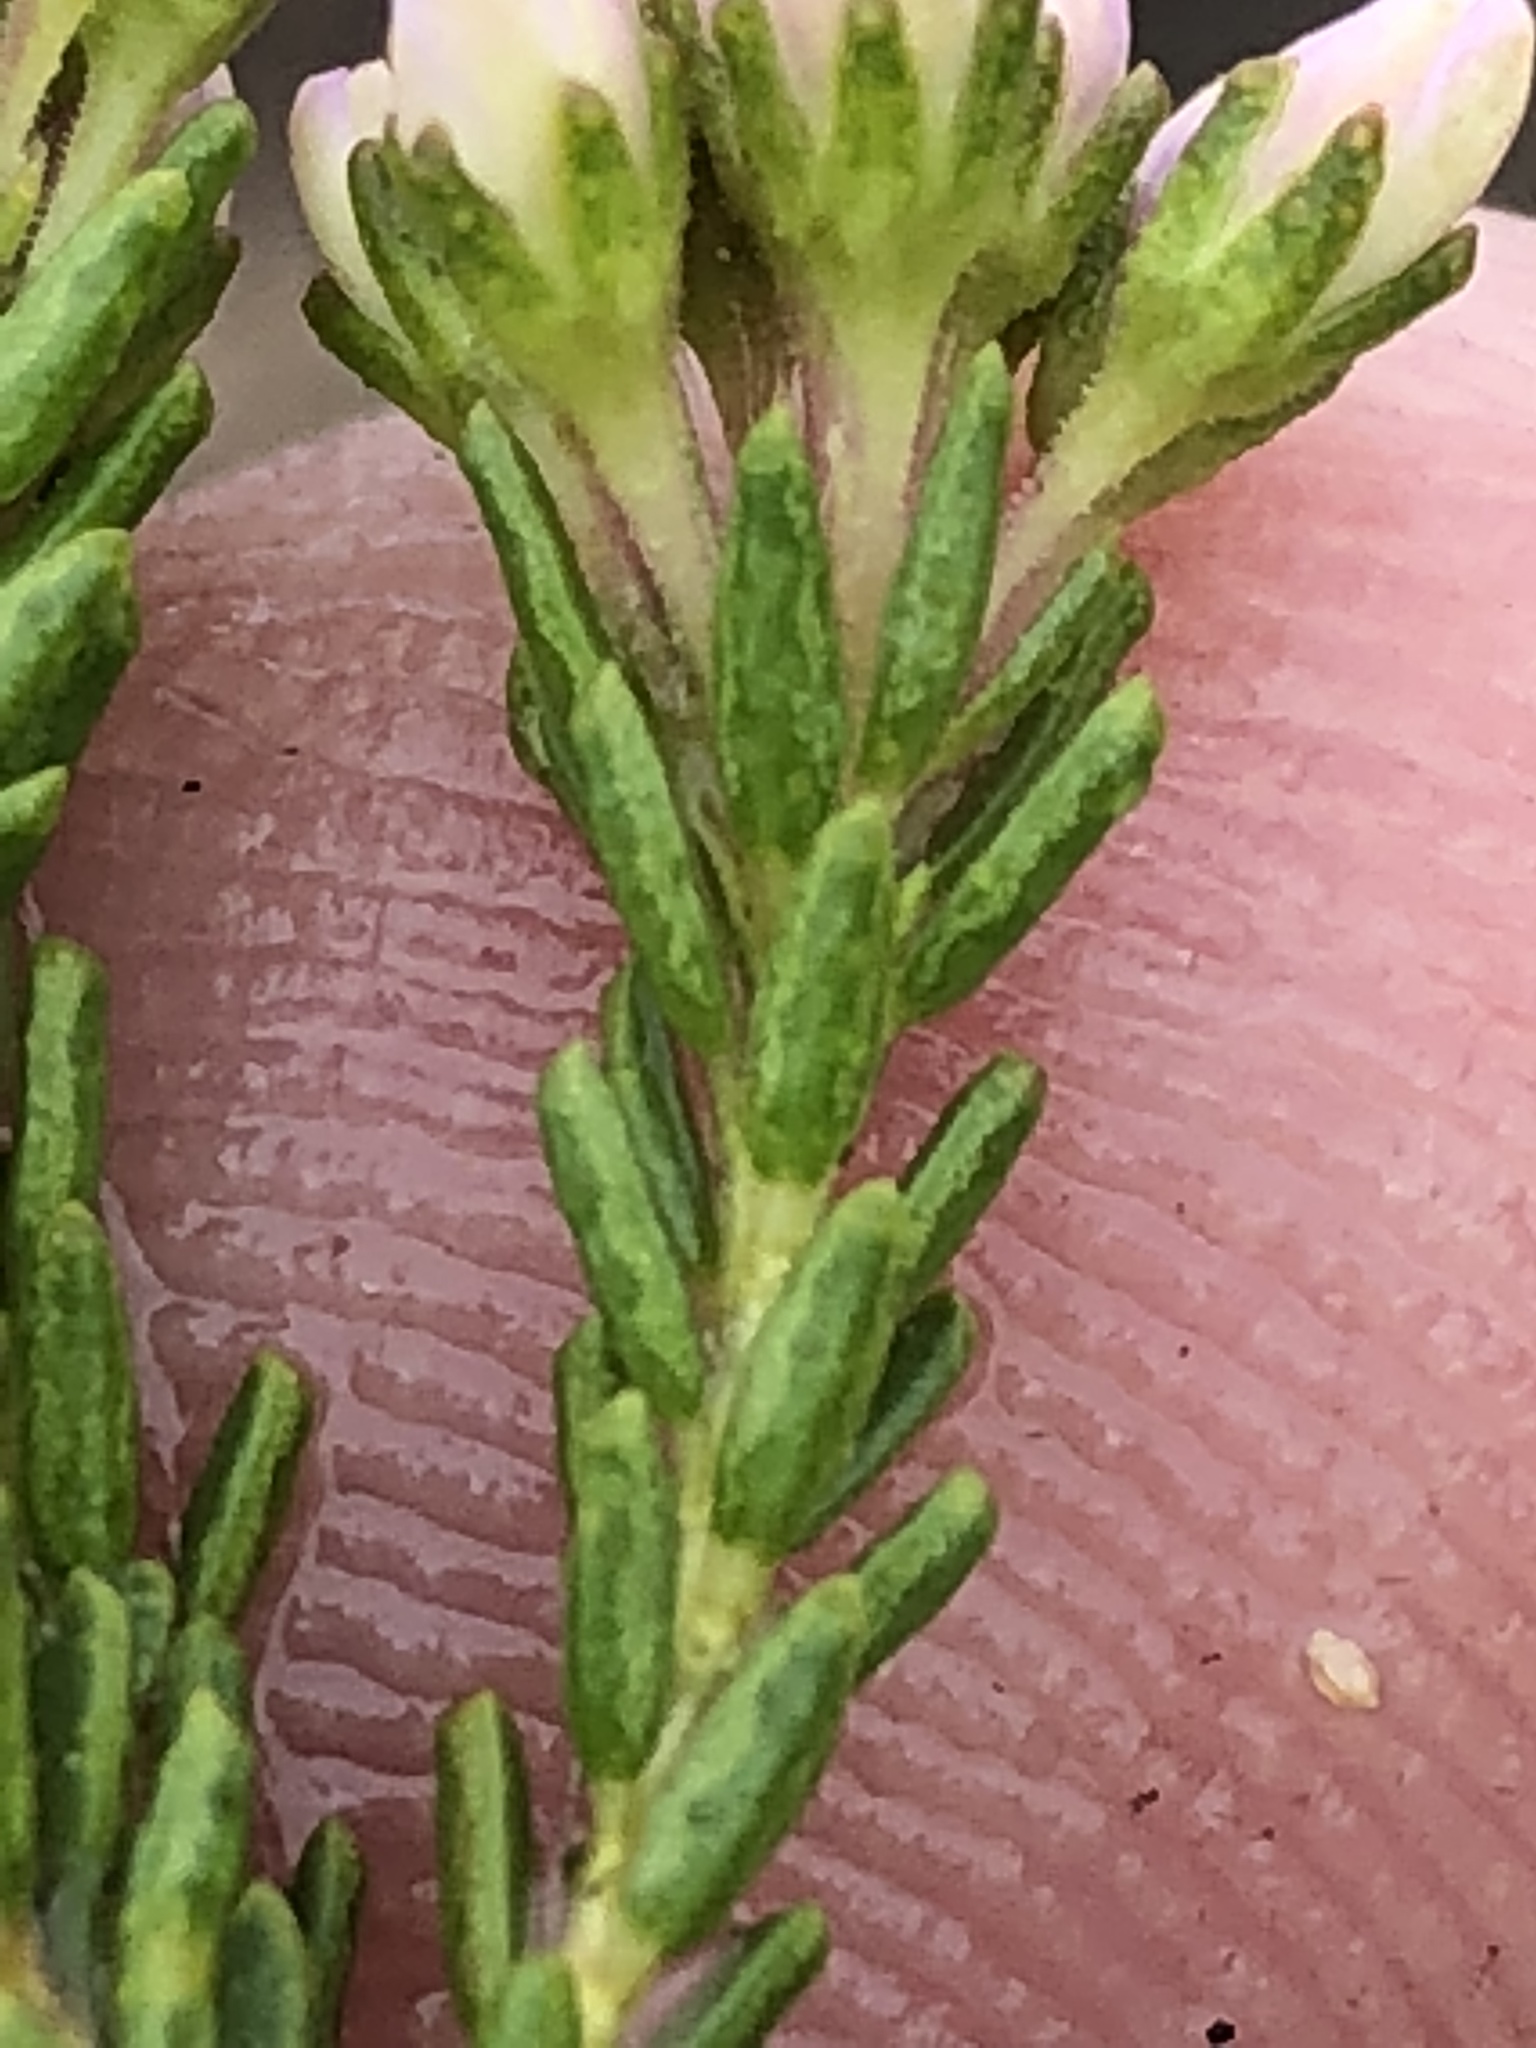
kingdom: Plantae
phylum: Tracheophyta
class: Magnoliopsida
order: Sapindales
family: Rutaceae
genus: Agathosma
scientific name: Agathosma capensis
